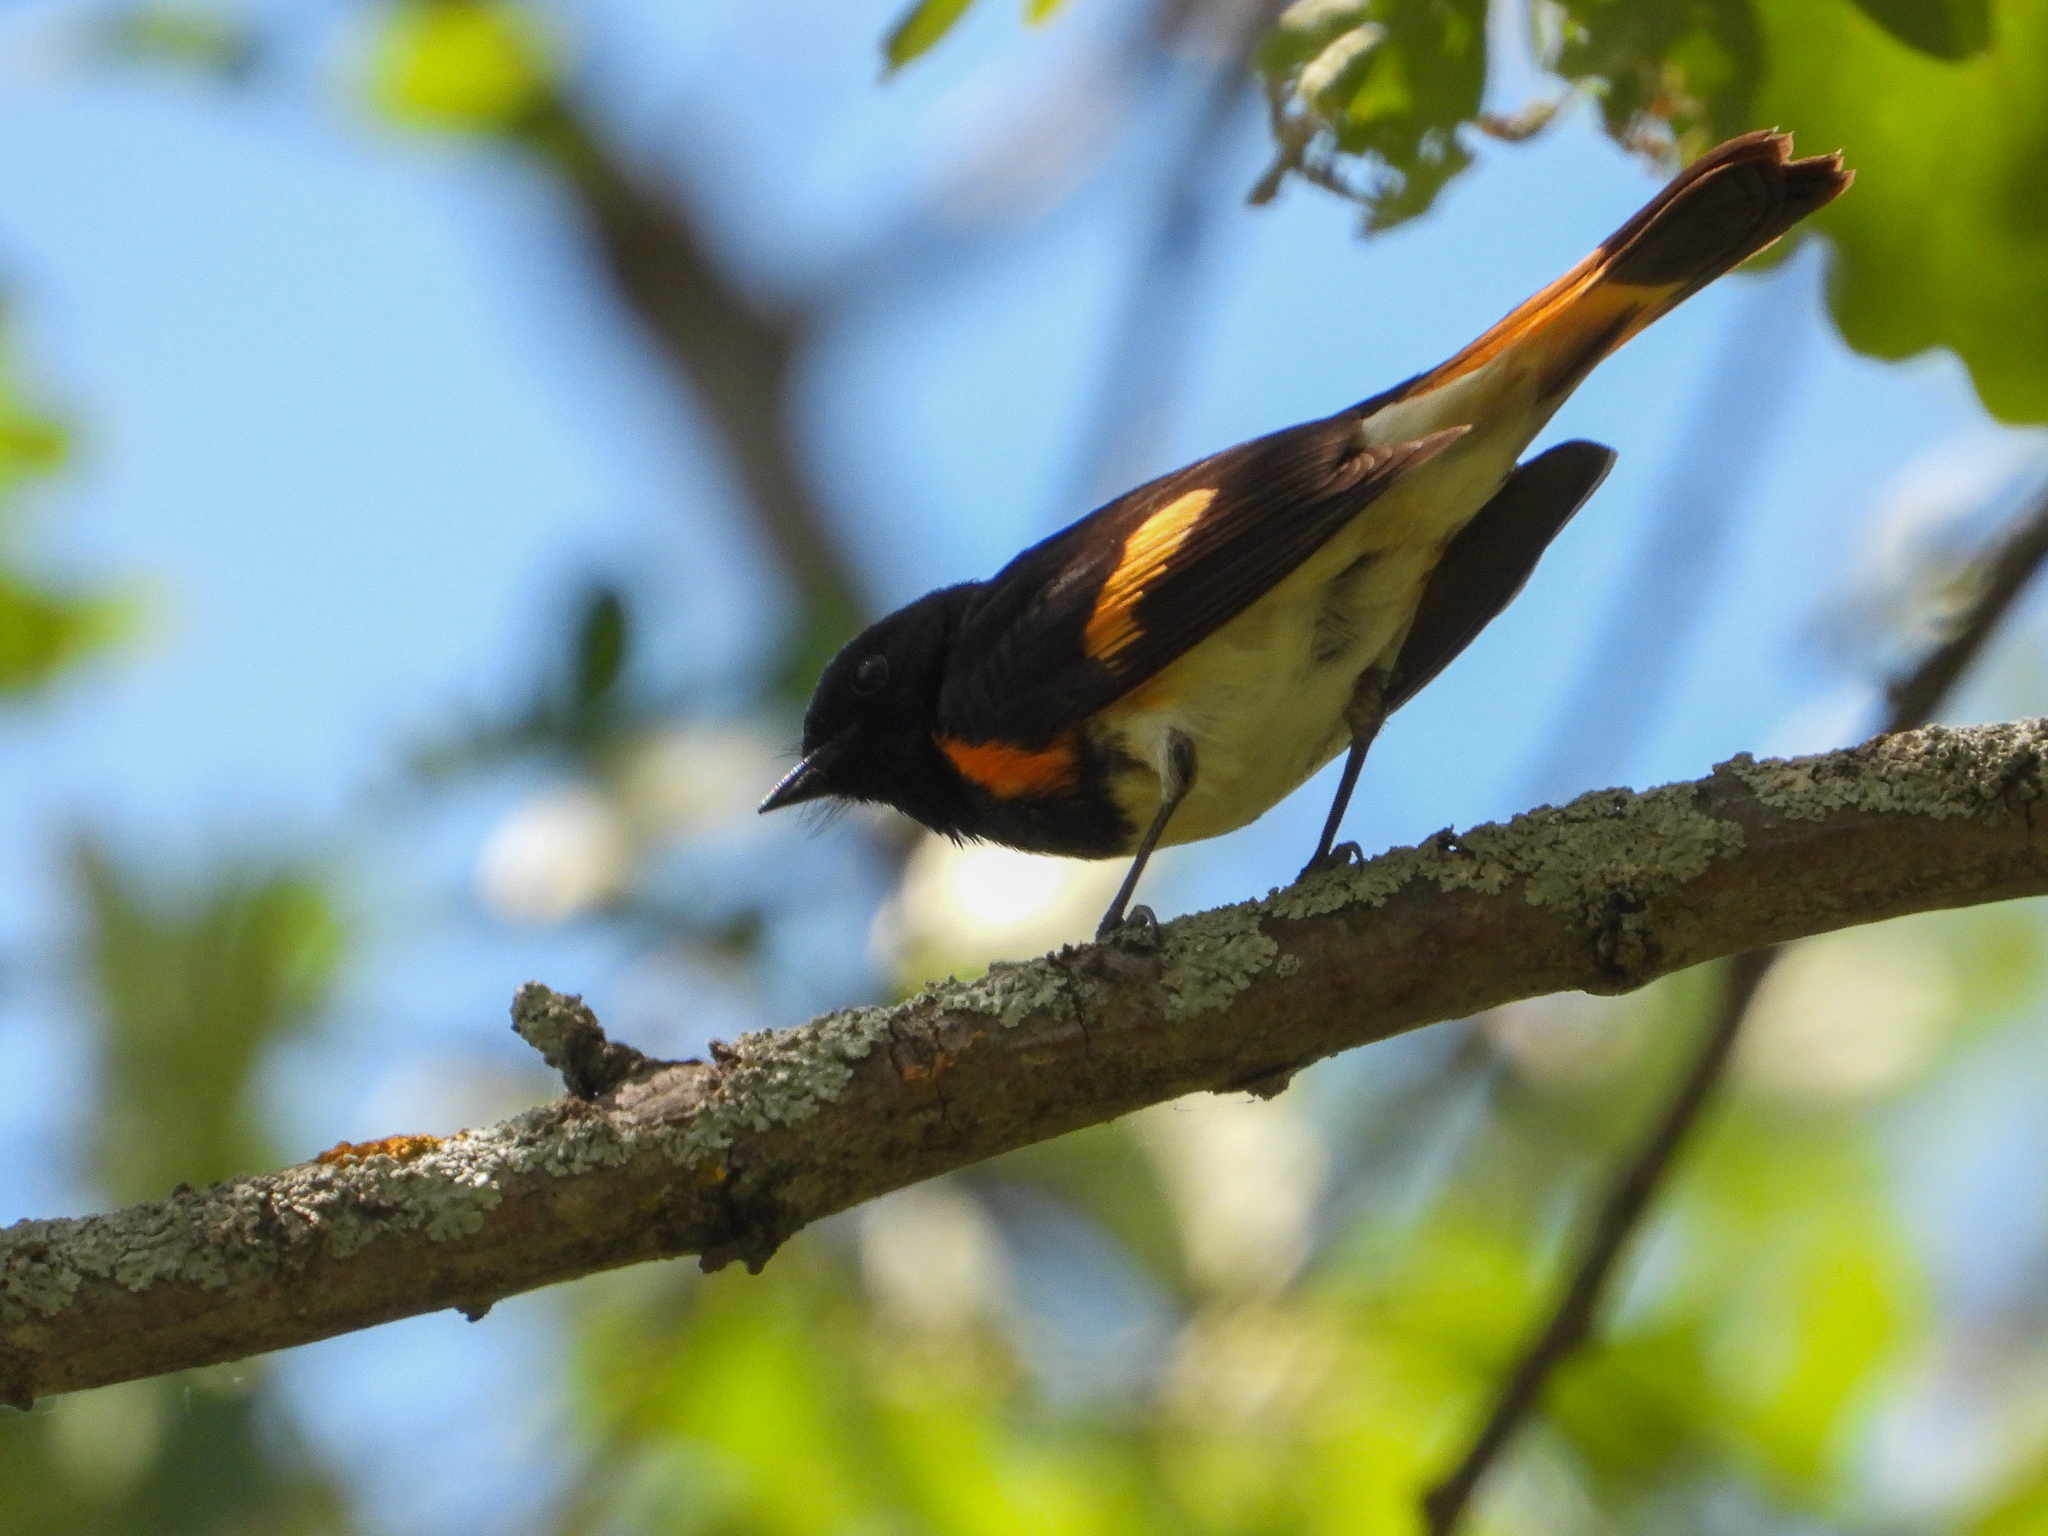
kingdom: Animalia
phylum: Chordata
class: Aves
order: Passeriformes
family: Parulidae
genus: Setophaga
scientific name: Setophaga ruticilla
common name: American redstart
